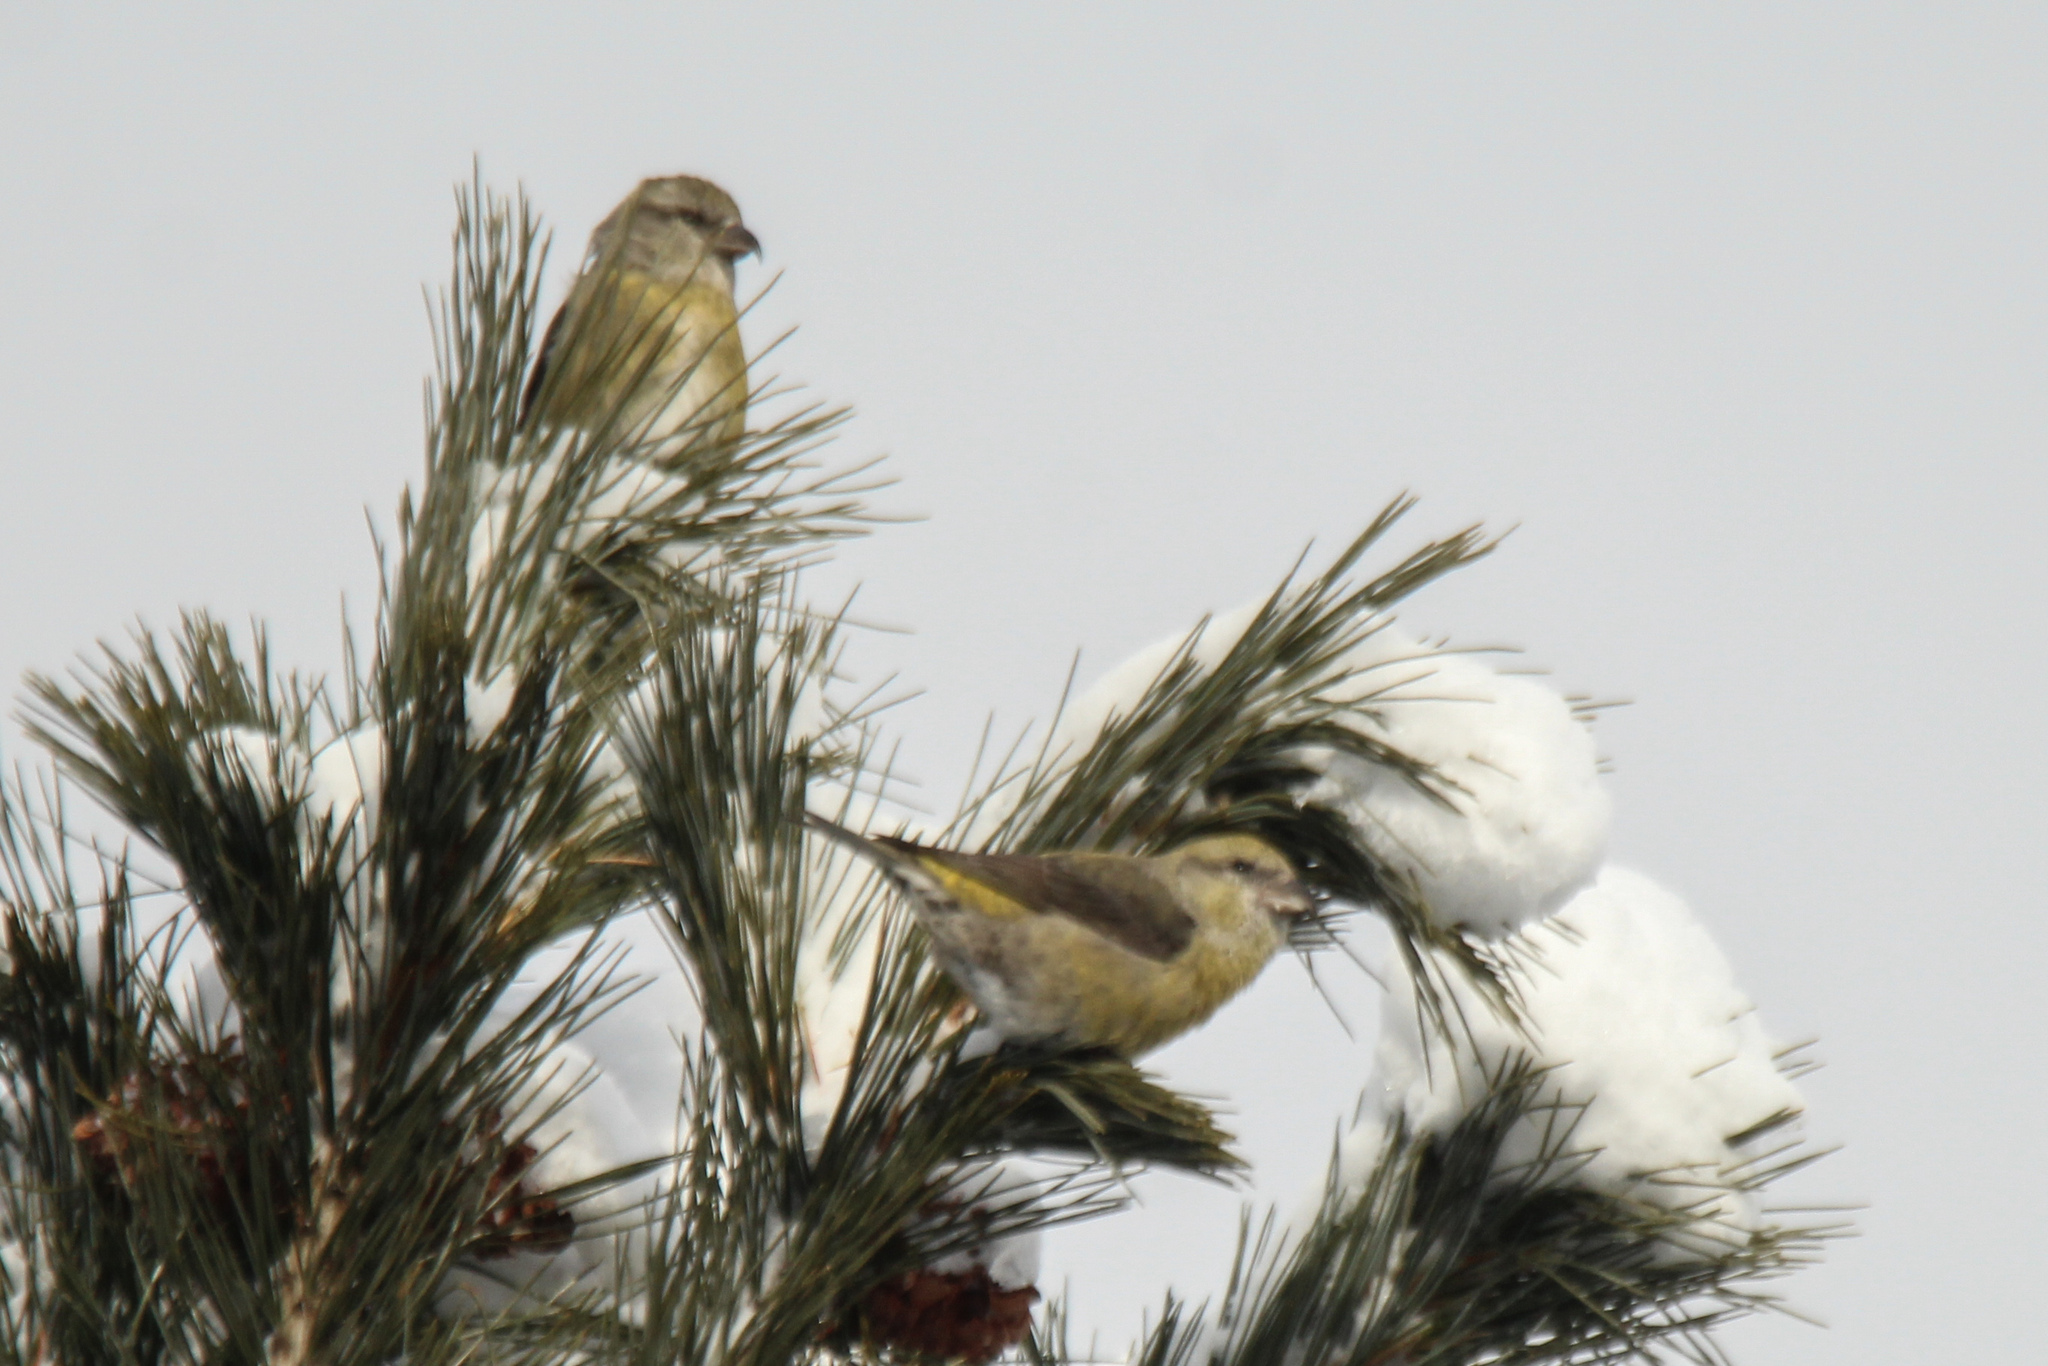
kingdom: Animalia
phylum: Chordata
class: Aves
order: Passeriformes
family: Fringillidae
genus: Loxia
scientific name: Loxia curvirostra
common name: Red crossbill
